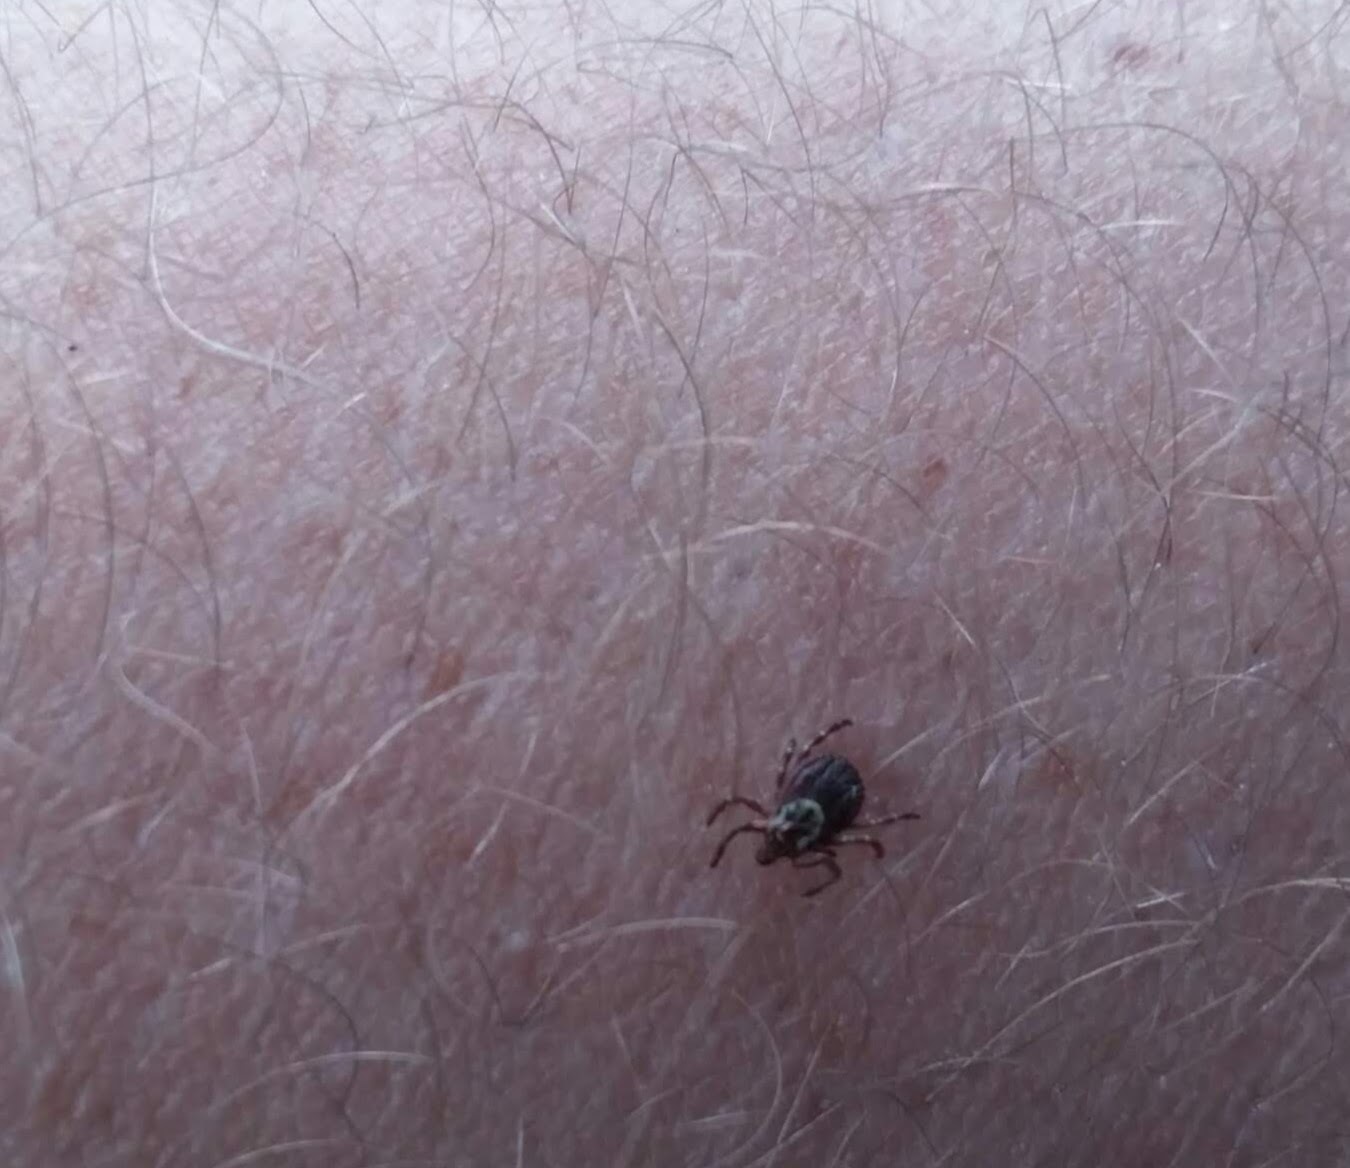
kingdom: Animalia
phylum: Arthropoda
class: Arachnida
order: Ixodida
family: Ixodidae
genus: Dermacentor
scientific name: Dermacentor variabilis
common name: American dog tick
